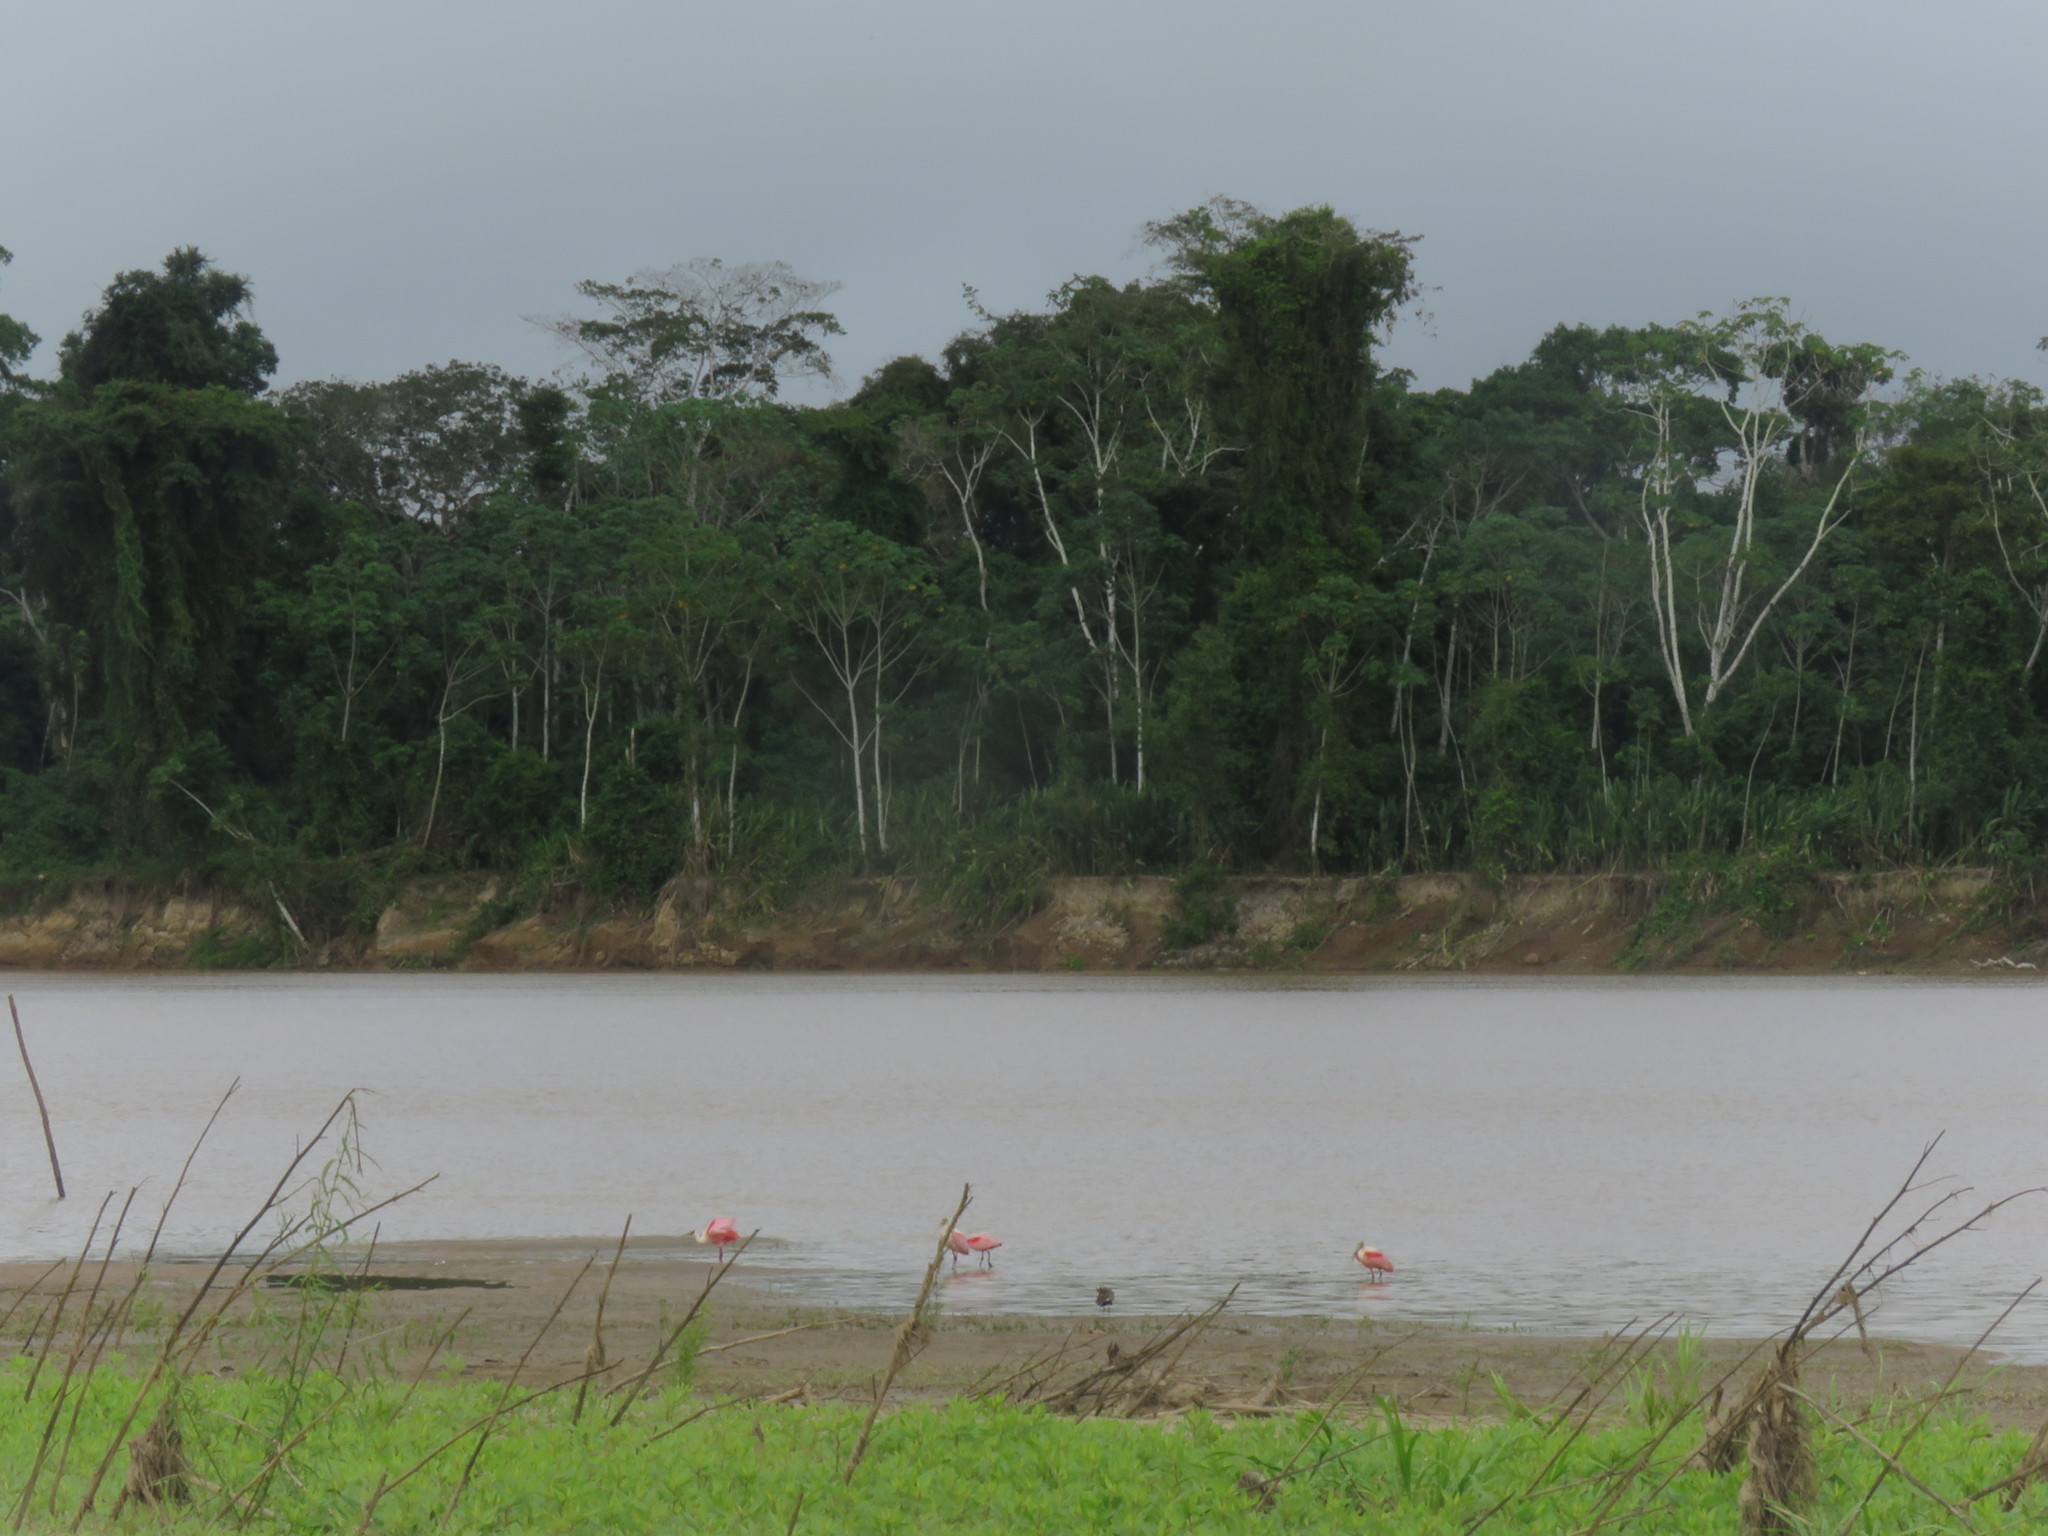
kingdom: Animalia
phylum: Chordata
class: Aves
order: Pelecaniformes
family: Threskiornithidae
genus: Platalea
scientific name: Platalea ajaja
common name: Roseate spoonbill
